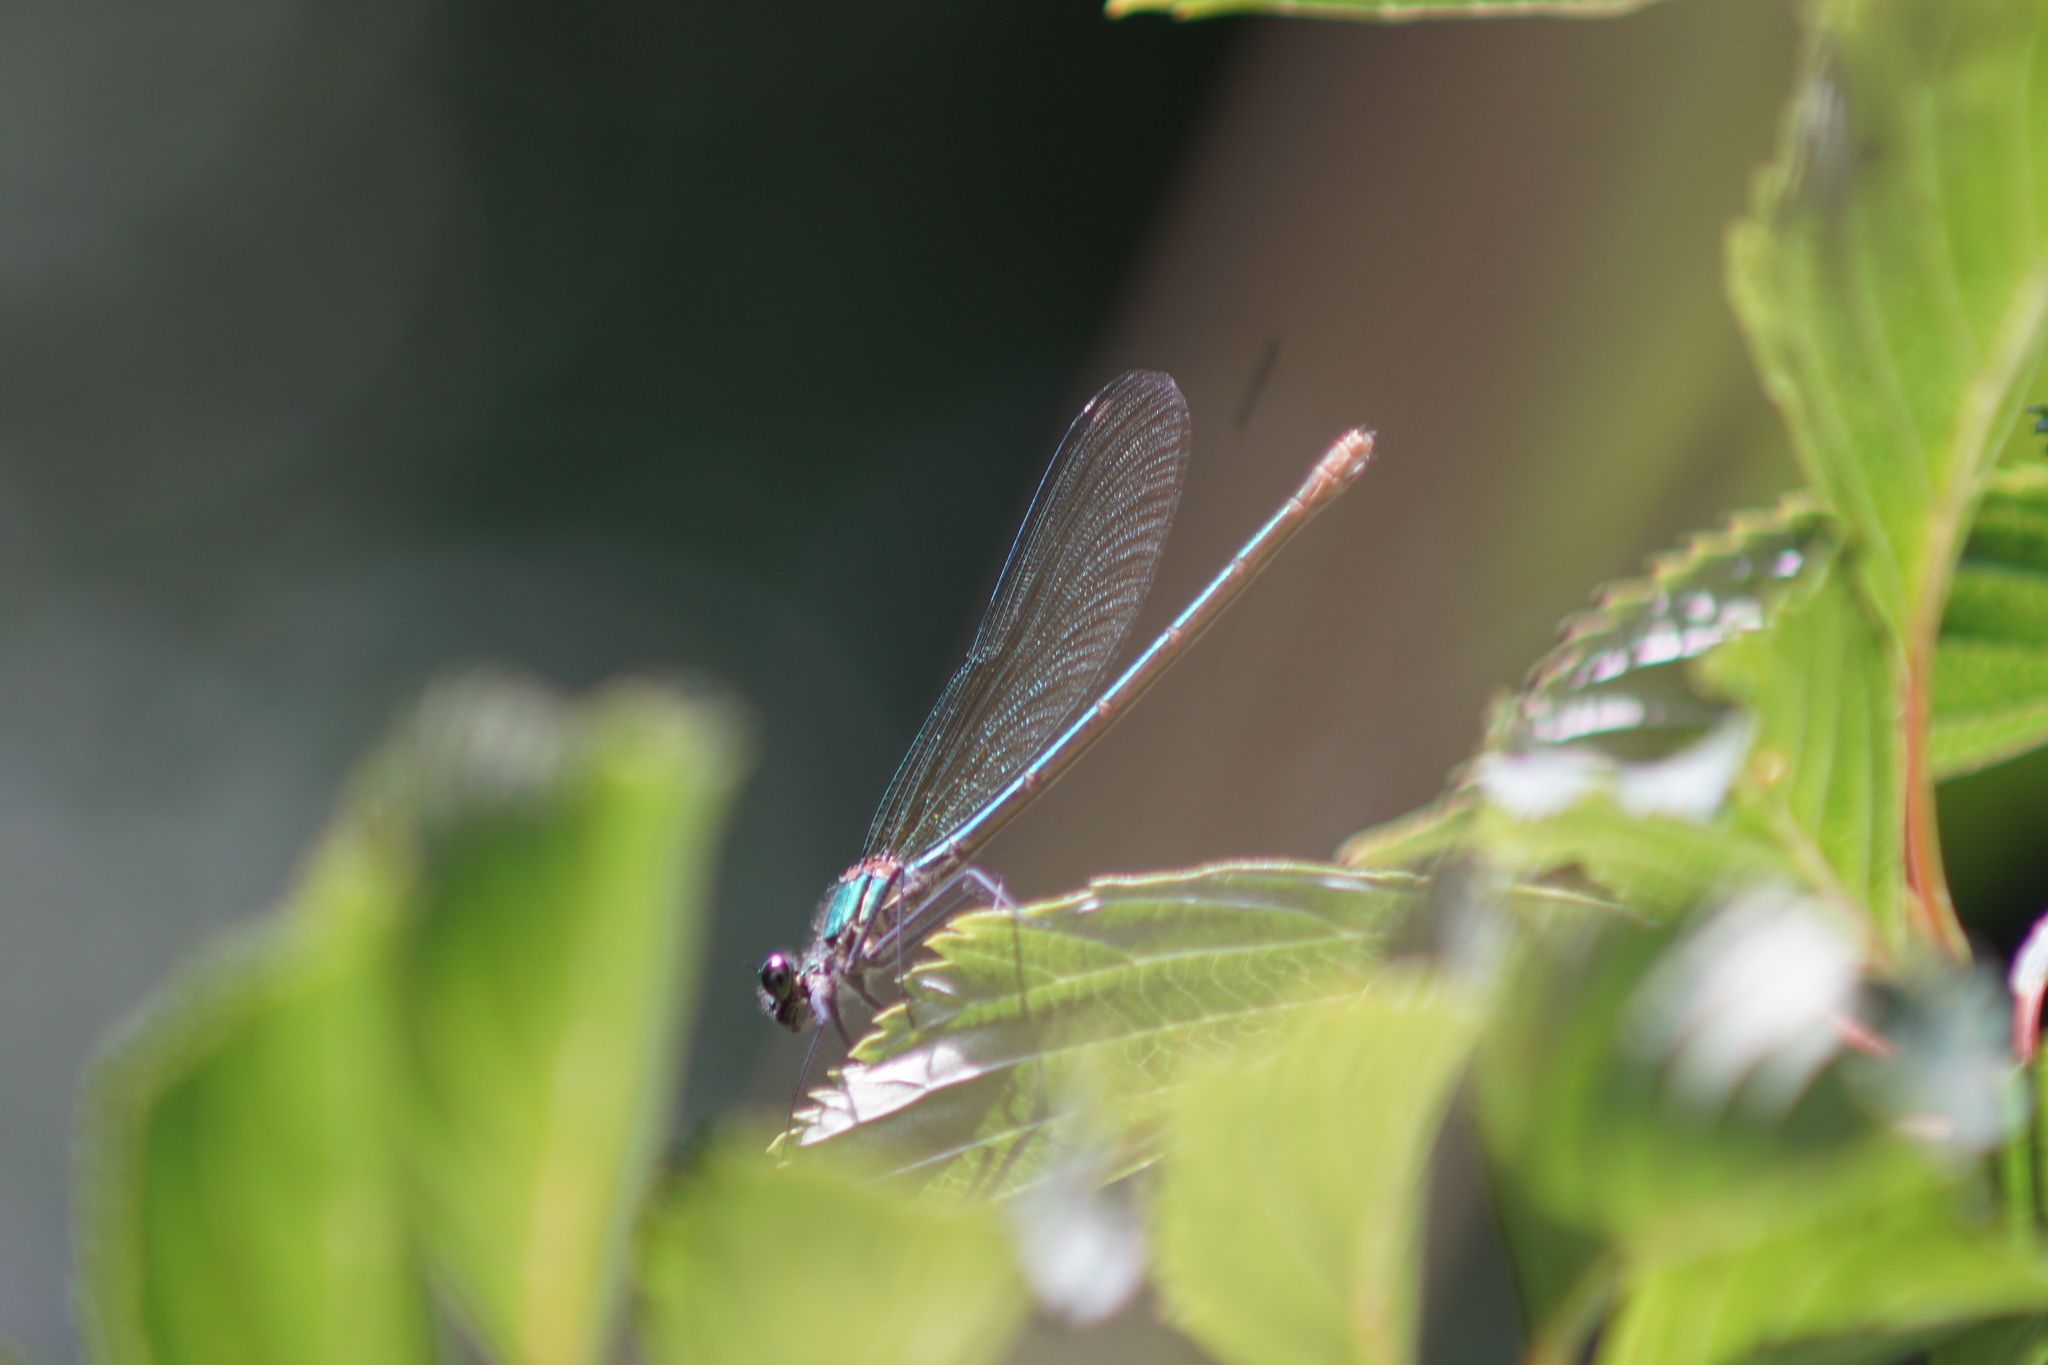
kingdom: Animalia
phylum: Arthropoda
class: Insecta
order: Odonata
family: Calopterygidae
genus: Calopteryx
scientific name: Calopteryx splendens
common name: Banded demoiselle
